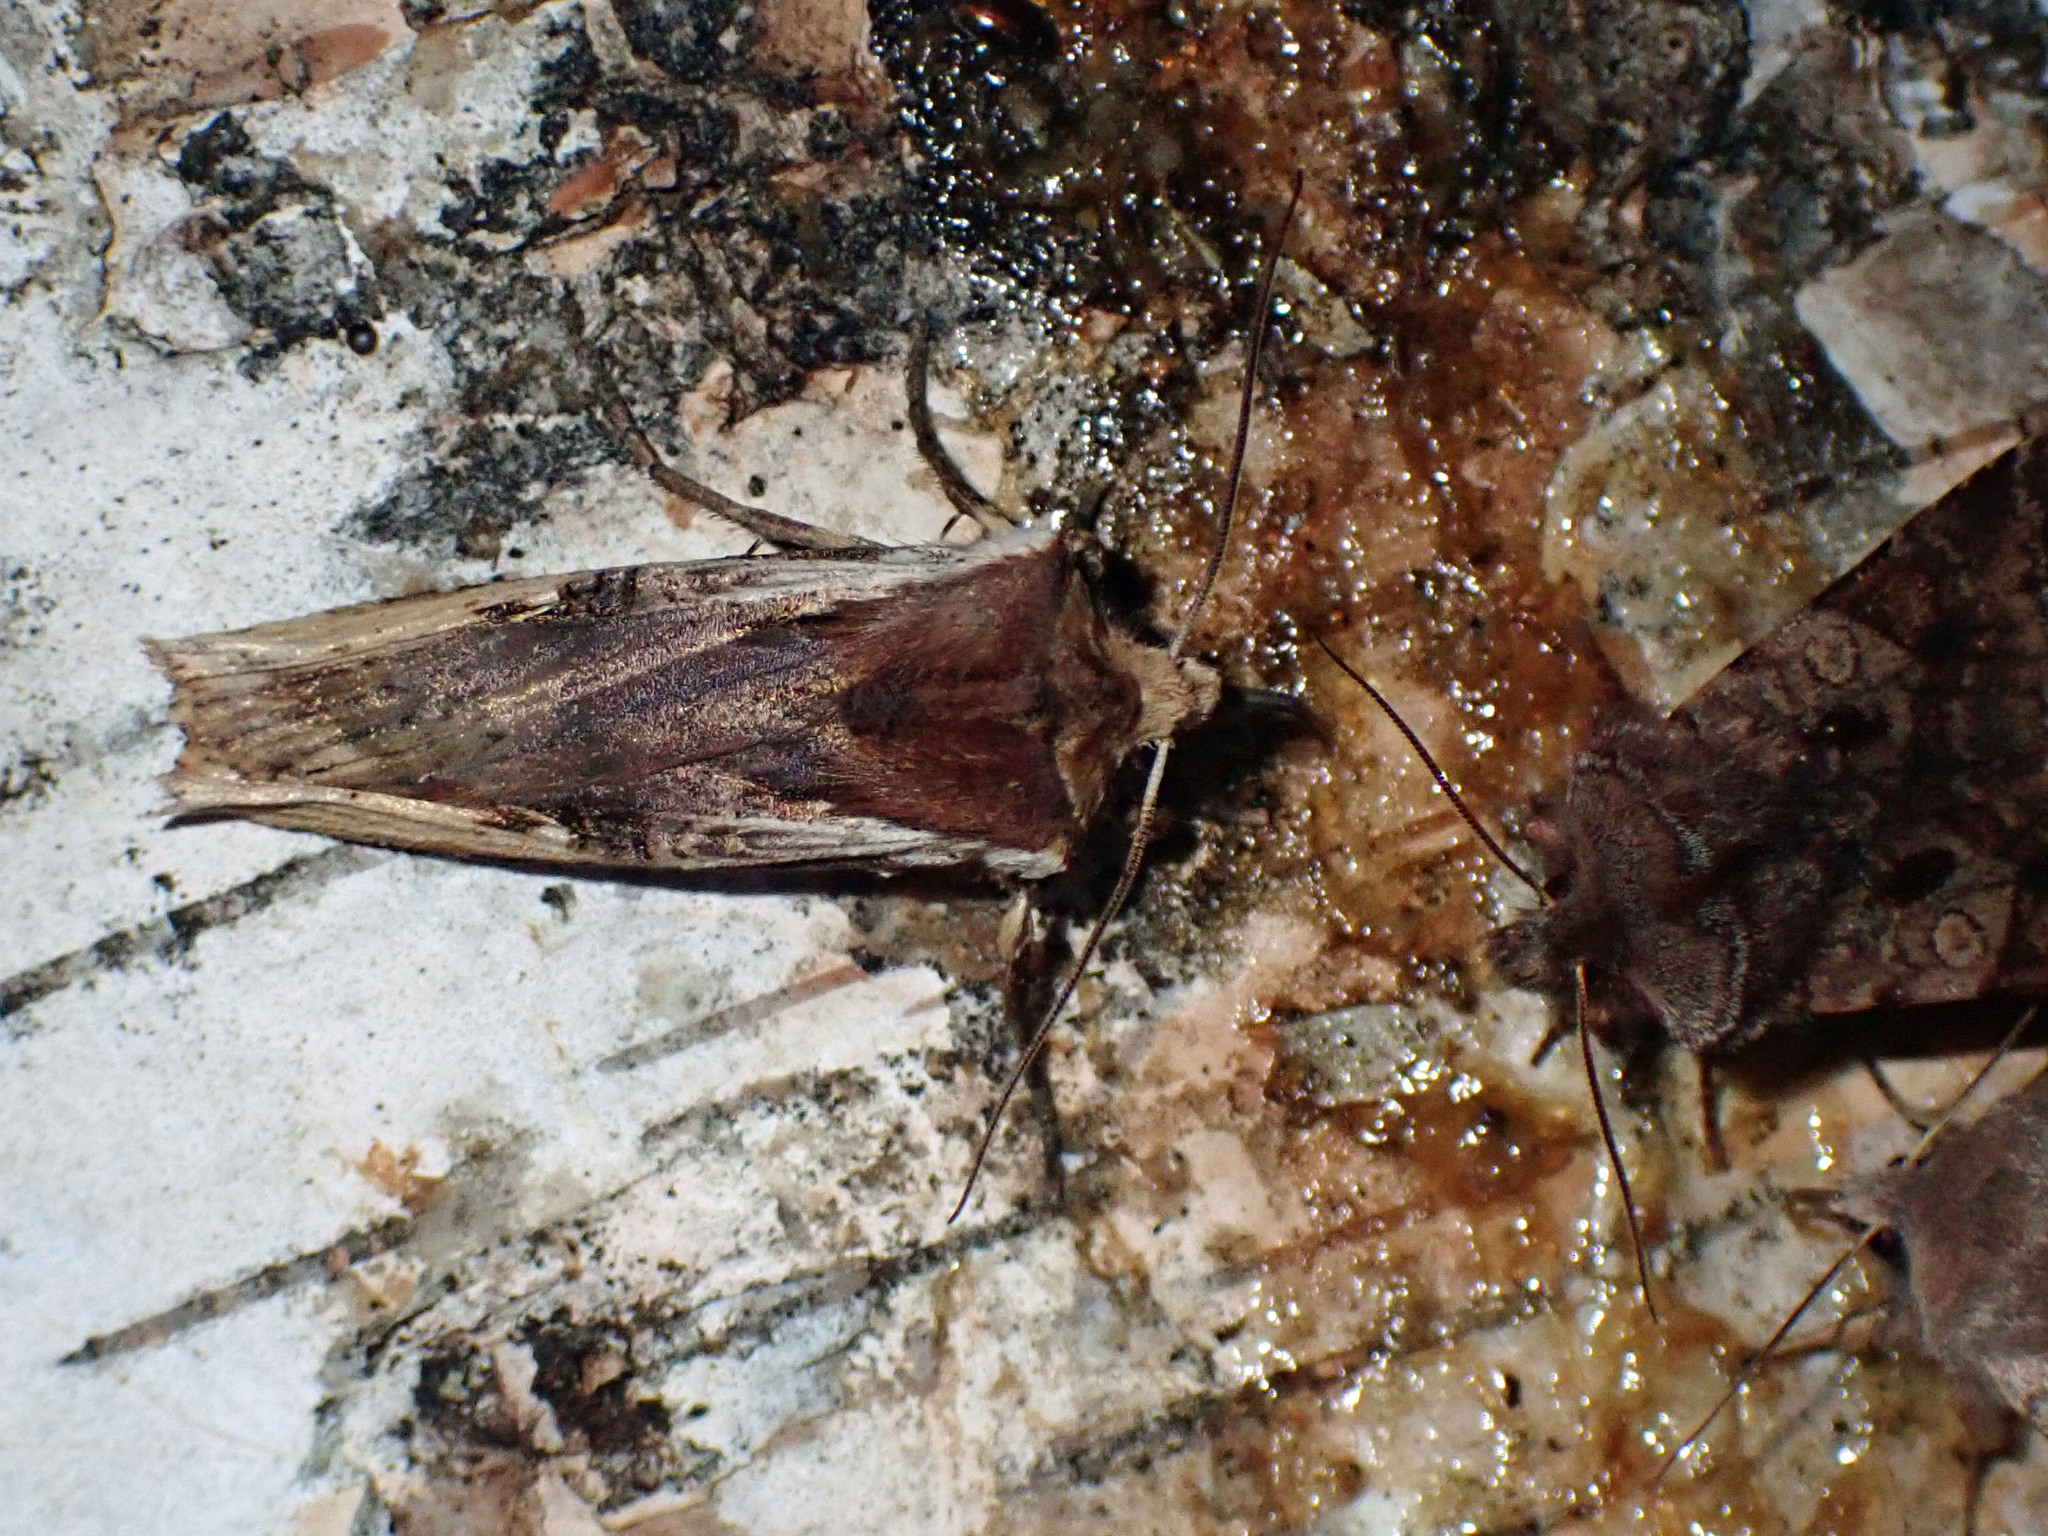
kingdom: Animalia
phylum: Arthropoda
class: Insecta
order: Lepidoptera
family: Noctuidae
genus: Xylena
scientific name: Xylena curvimacula
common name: Dot-and-dash swordgrass moth
